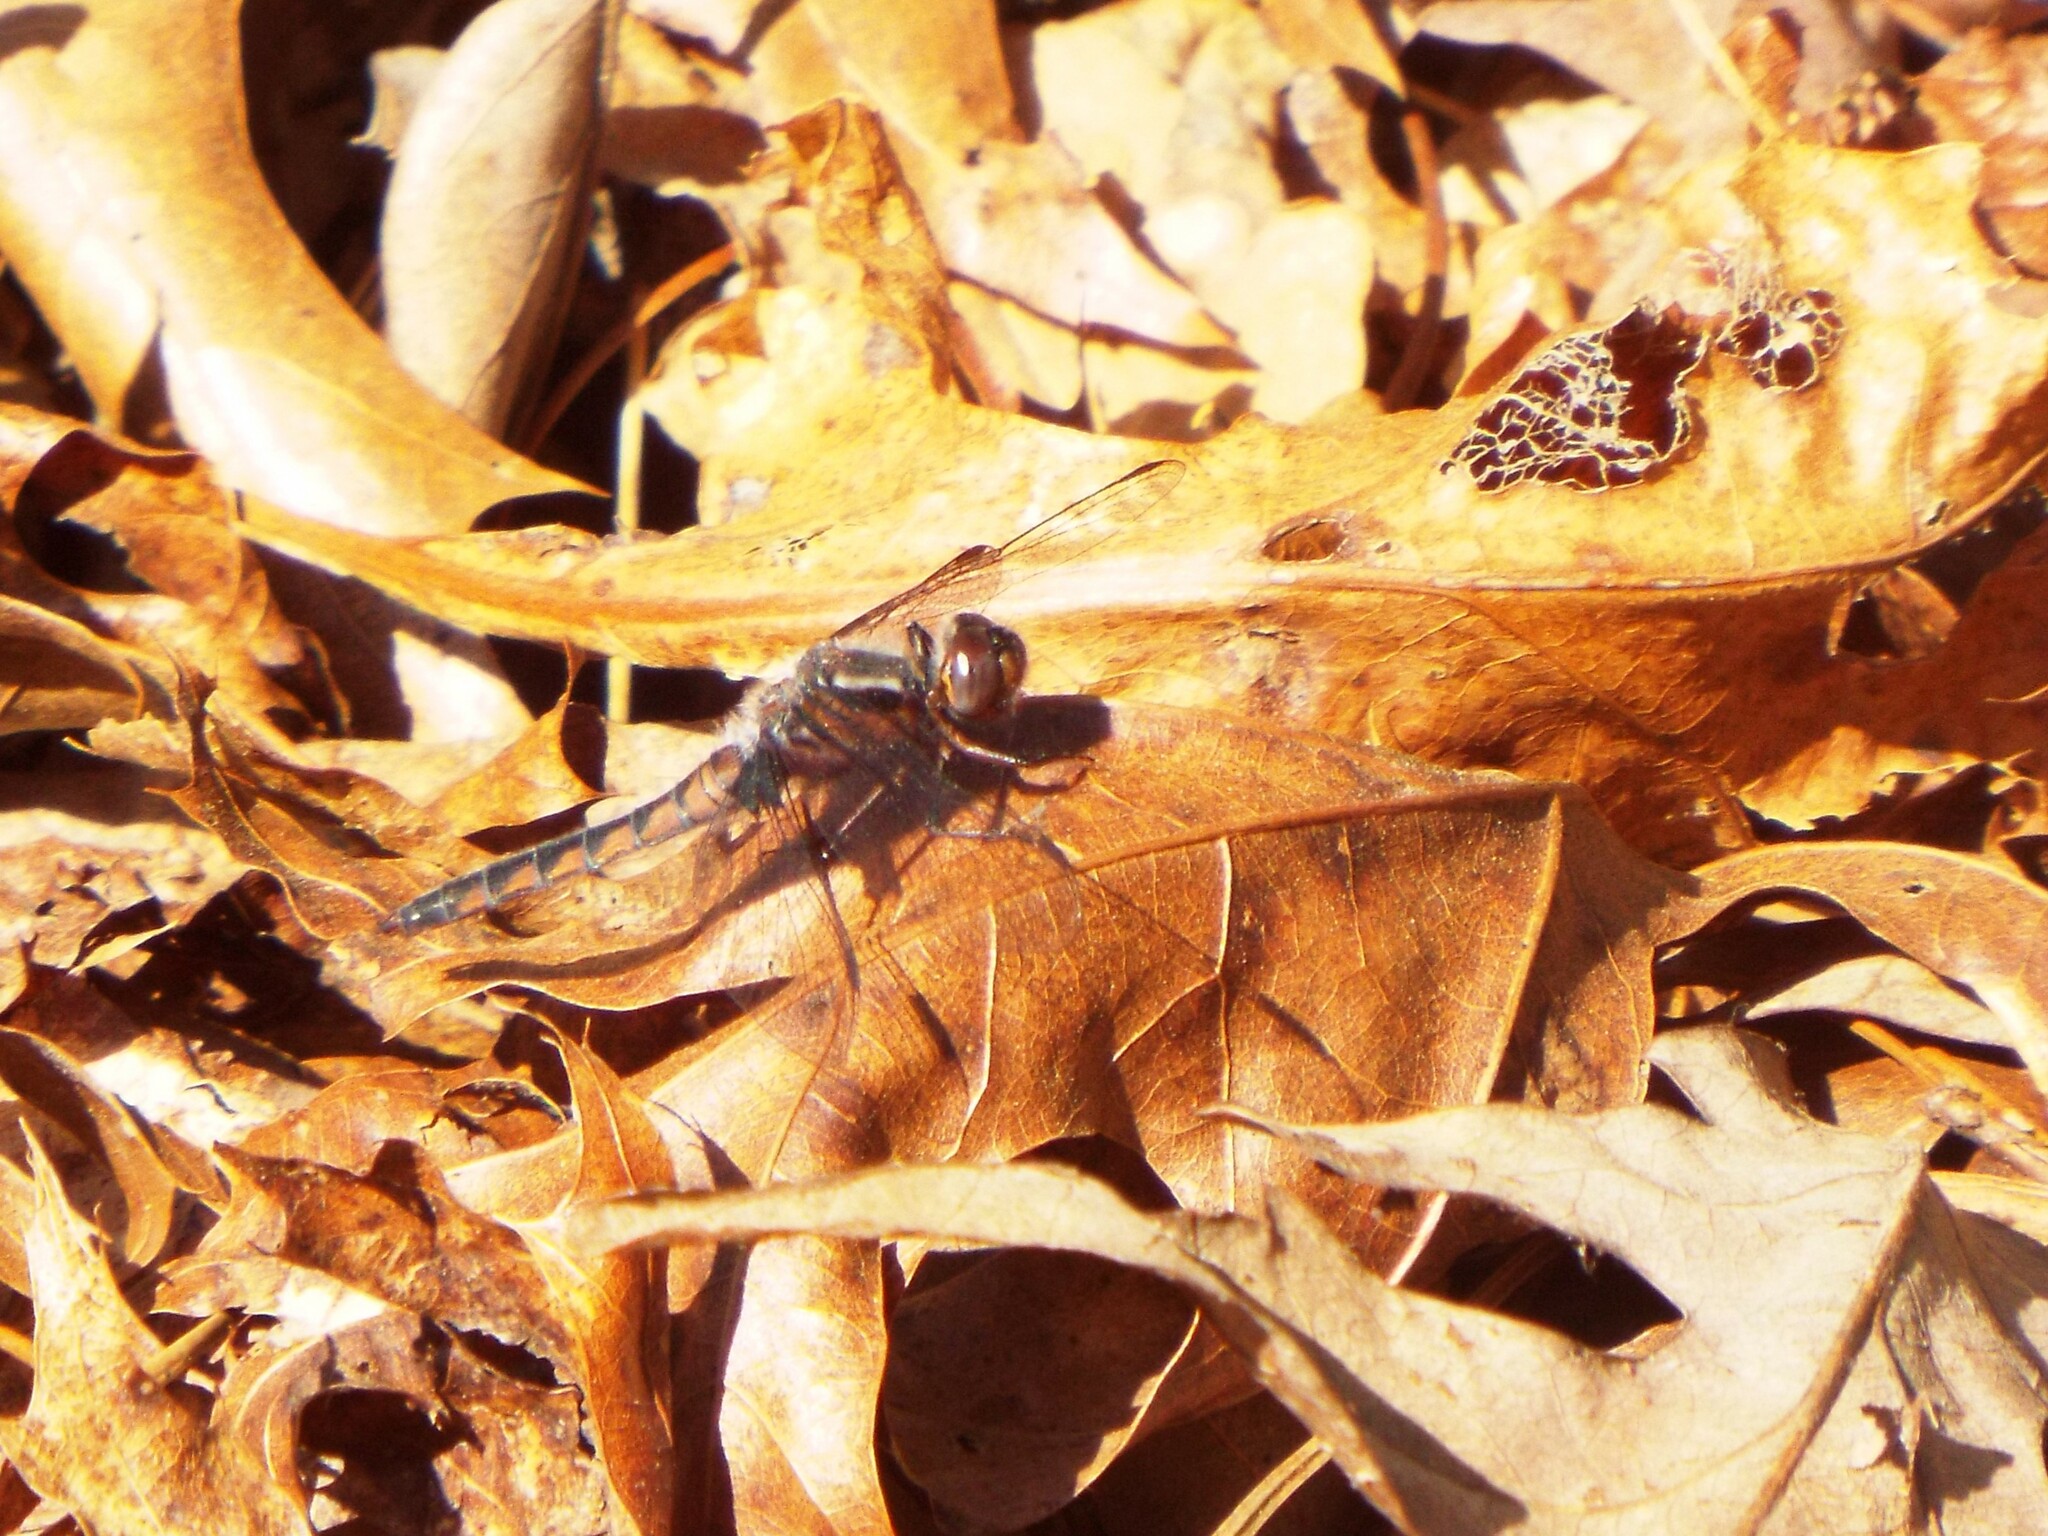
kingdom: Animalia
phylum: Arthropoda
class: Insecta
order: Odonata
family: Libellulidae
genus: Ladona
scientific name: Ladona deplanata
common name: Blue corporal
